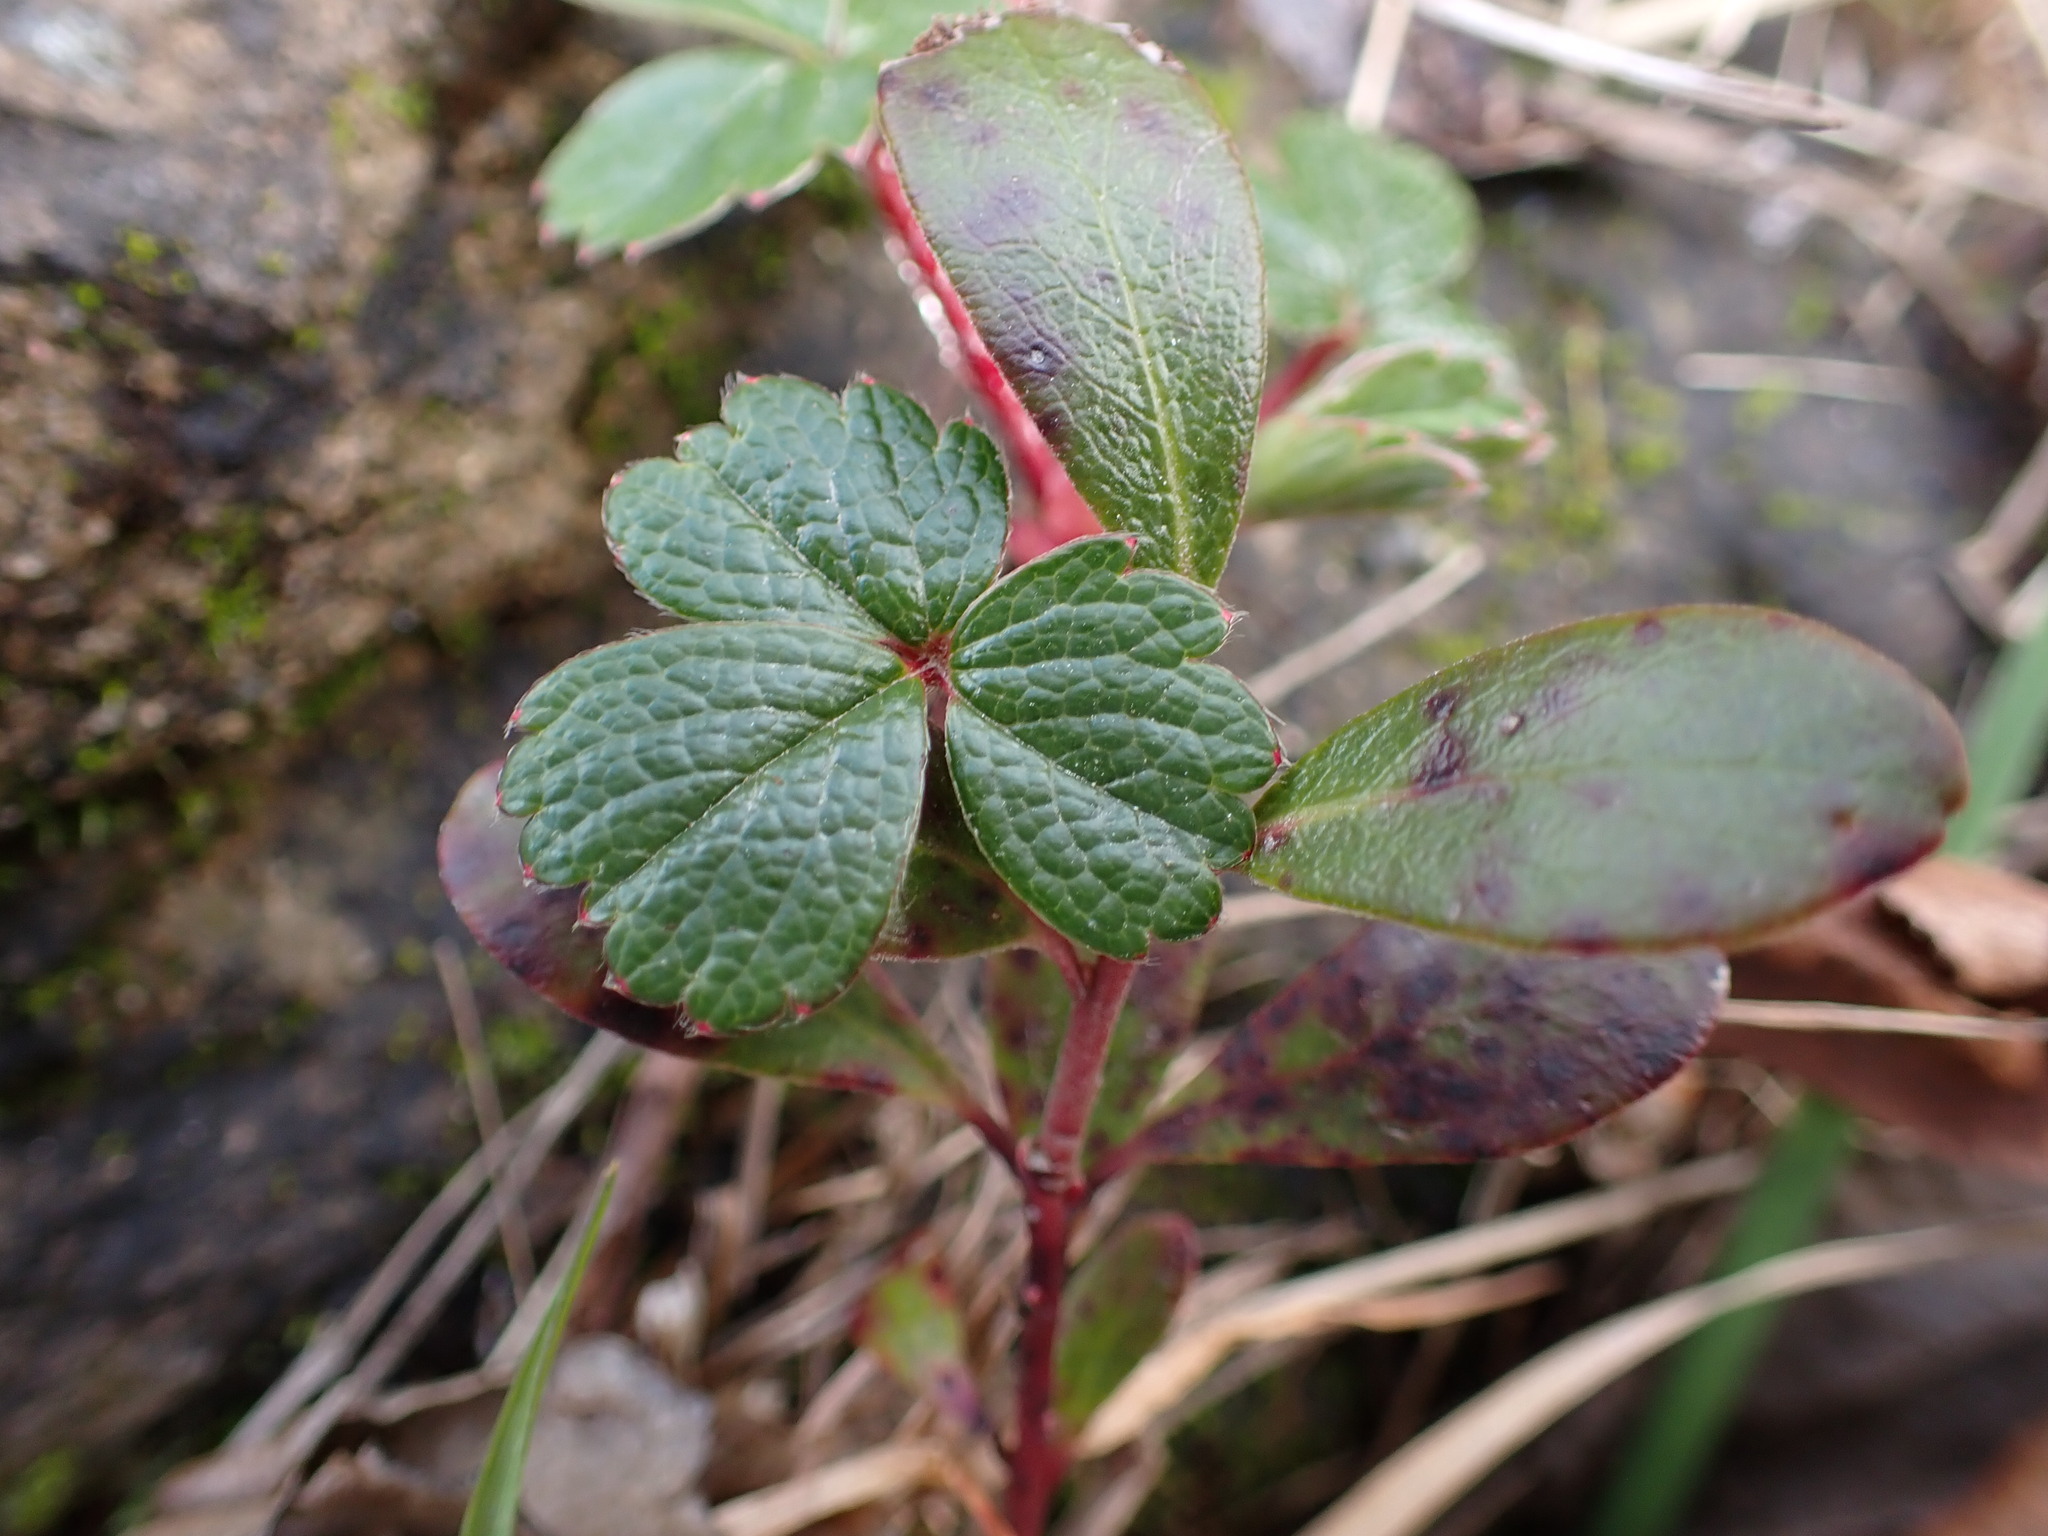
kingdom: Plantae
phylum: Tracheophyta
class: Magnoliopsida
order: Rosales
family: Rosaceae
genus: Fragaria
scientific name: Fragaria chiloensis
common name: Beach strawberry
